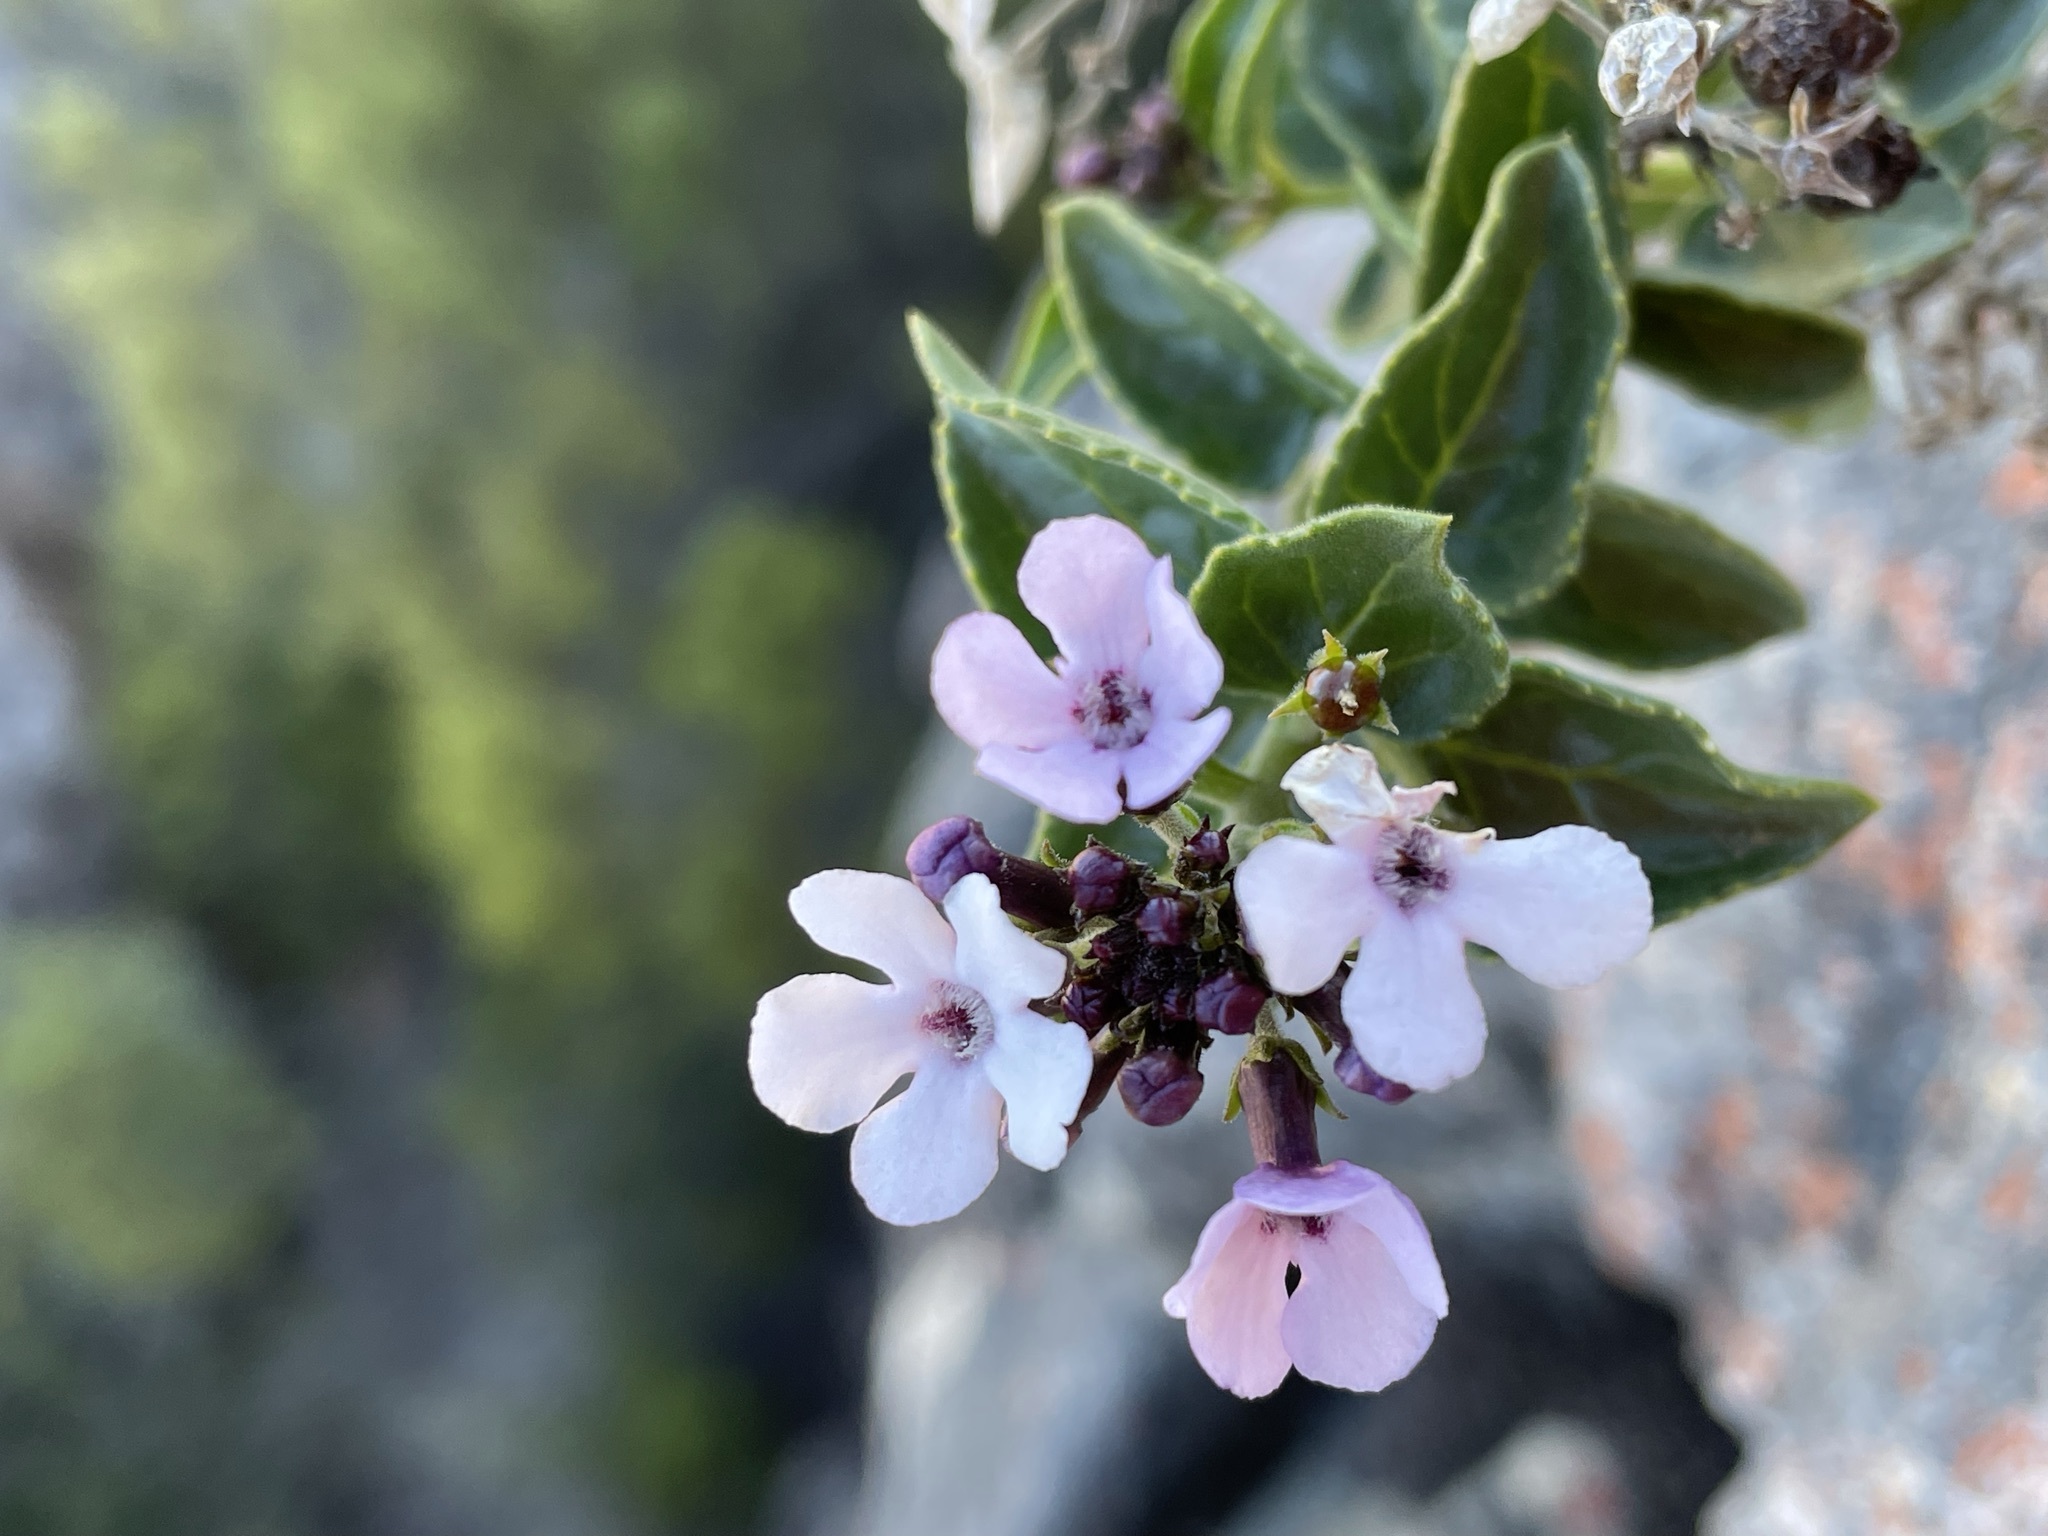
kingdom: Plantae
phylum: Tracheophyta
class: Magnoliopsida
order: Lamiales
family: Scrophulariaceae
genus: Teedia
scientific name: Teedia pubescens
